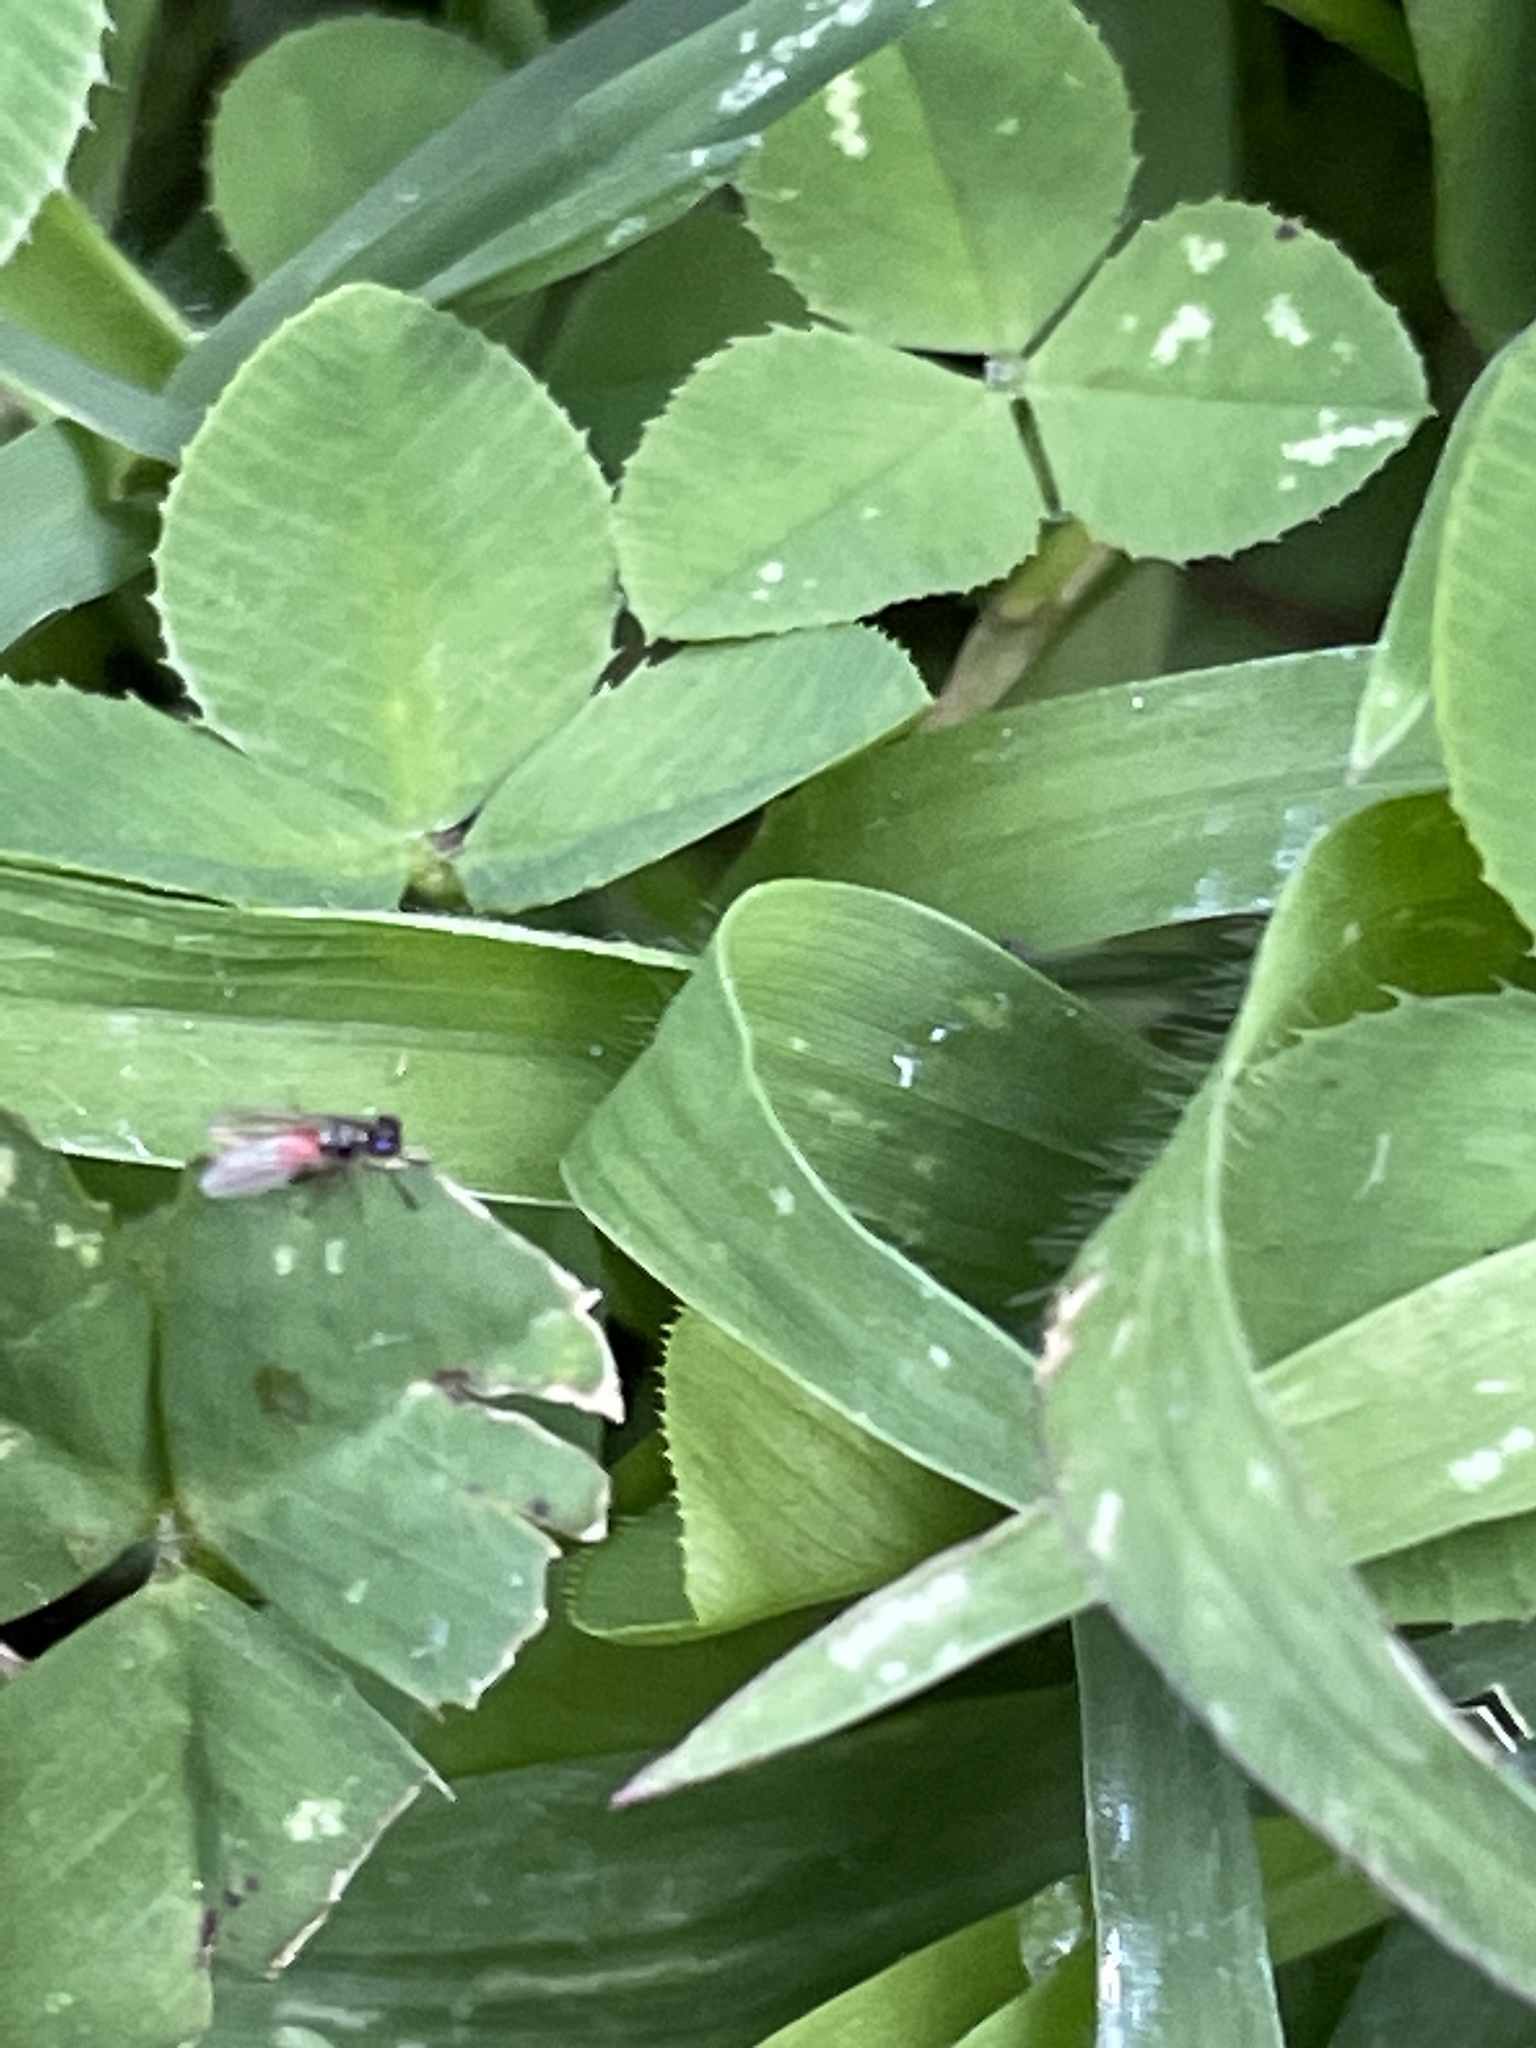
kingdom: Animalia
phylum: Arthropoda
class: Insecta
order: Diptera
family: Ephydridae
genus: Hydrellia
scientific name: Hydrellia tritici
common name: Shore fly
